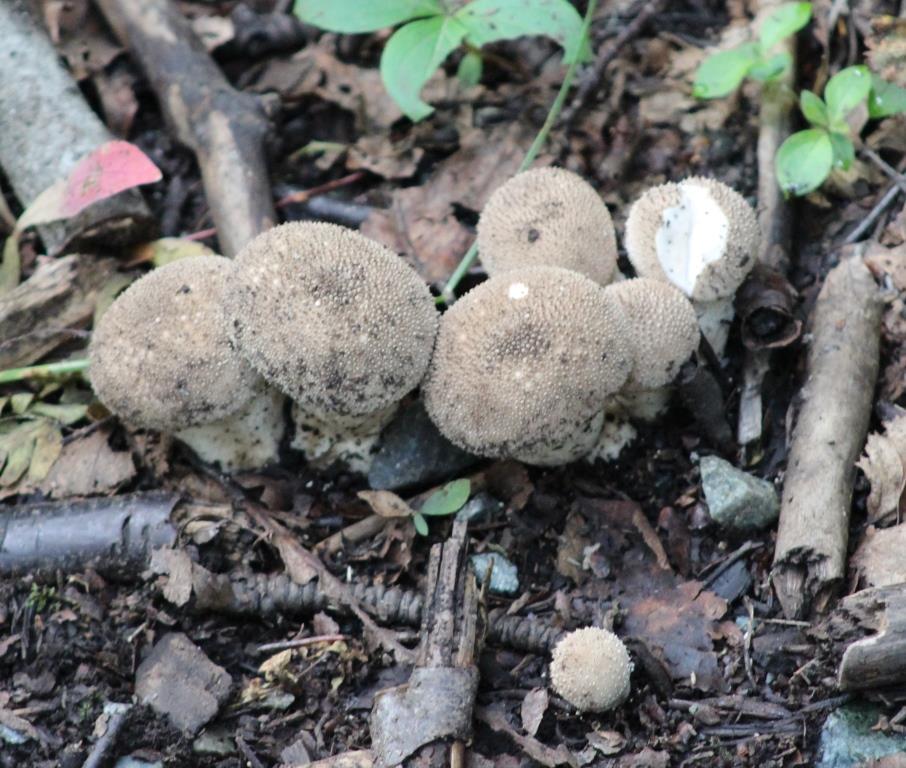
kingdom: Fungi
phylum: Basidiomycota
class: Agaricomycetes
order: Agaricales
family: Lycoperdaceae
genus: Lycoperdon
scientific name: Lycoperdon perlatum
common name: Common puffball
